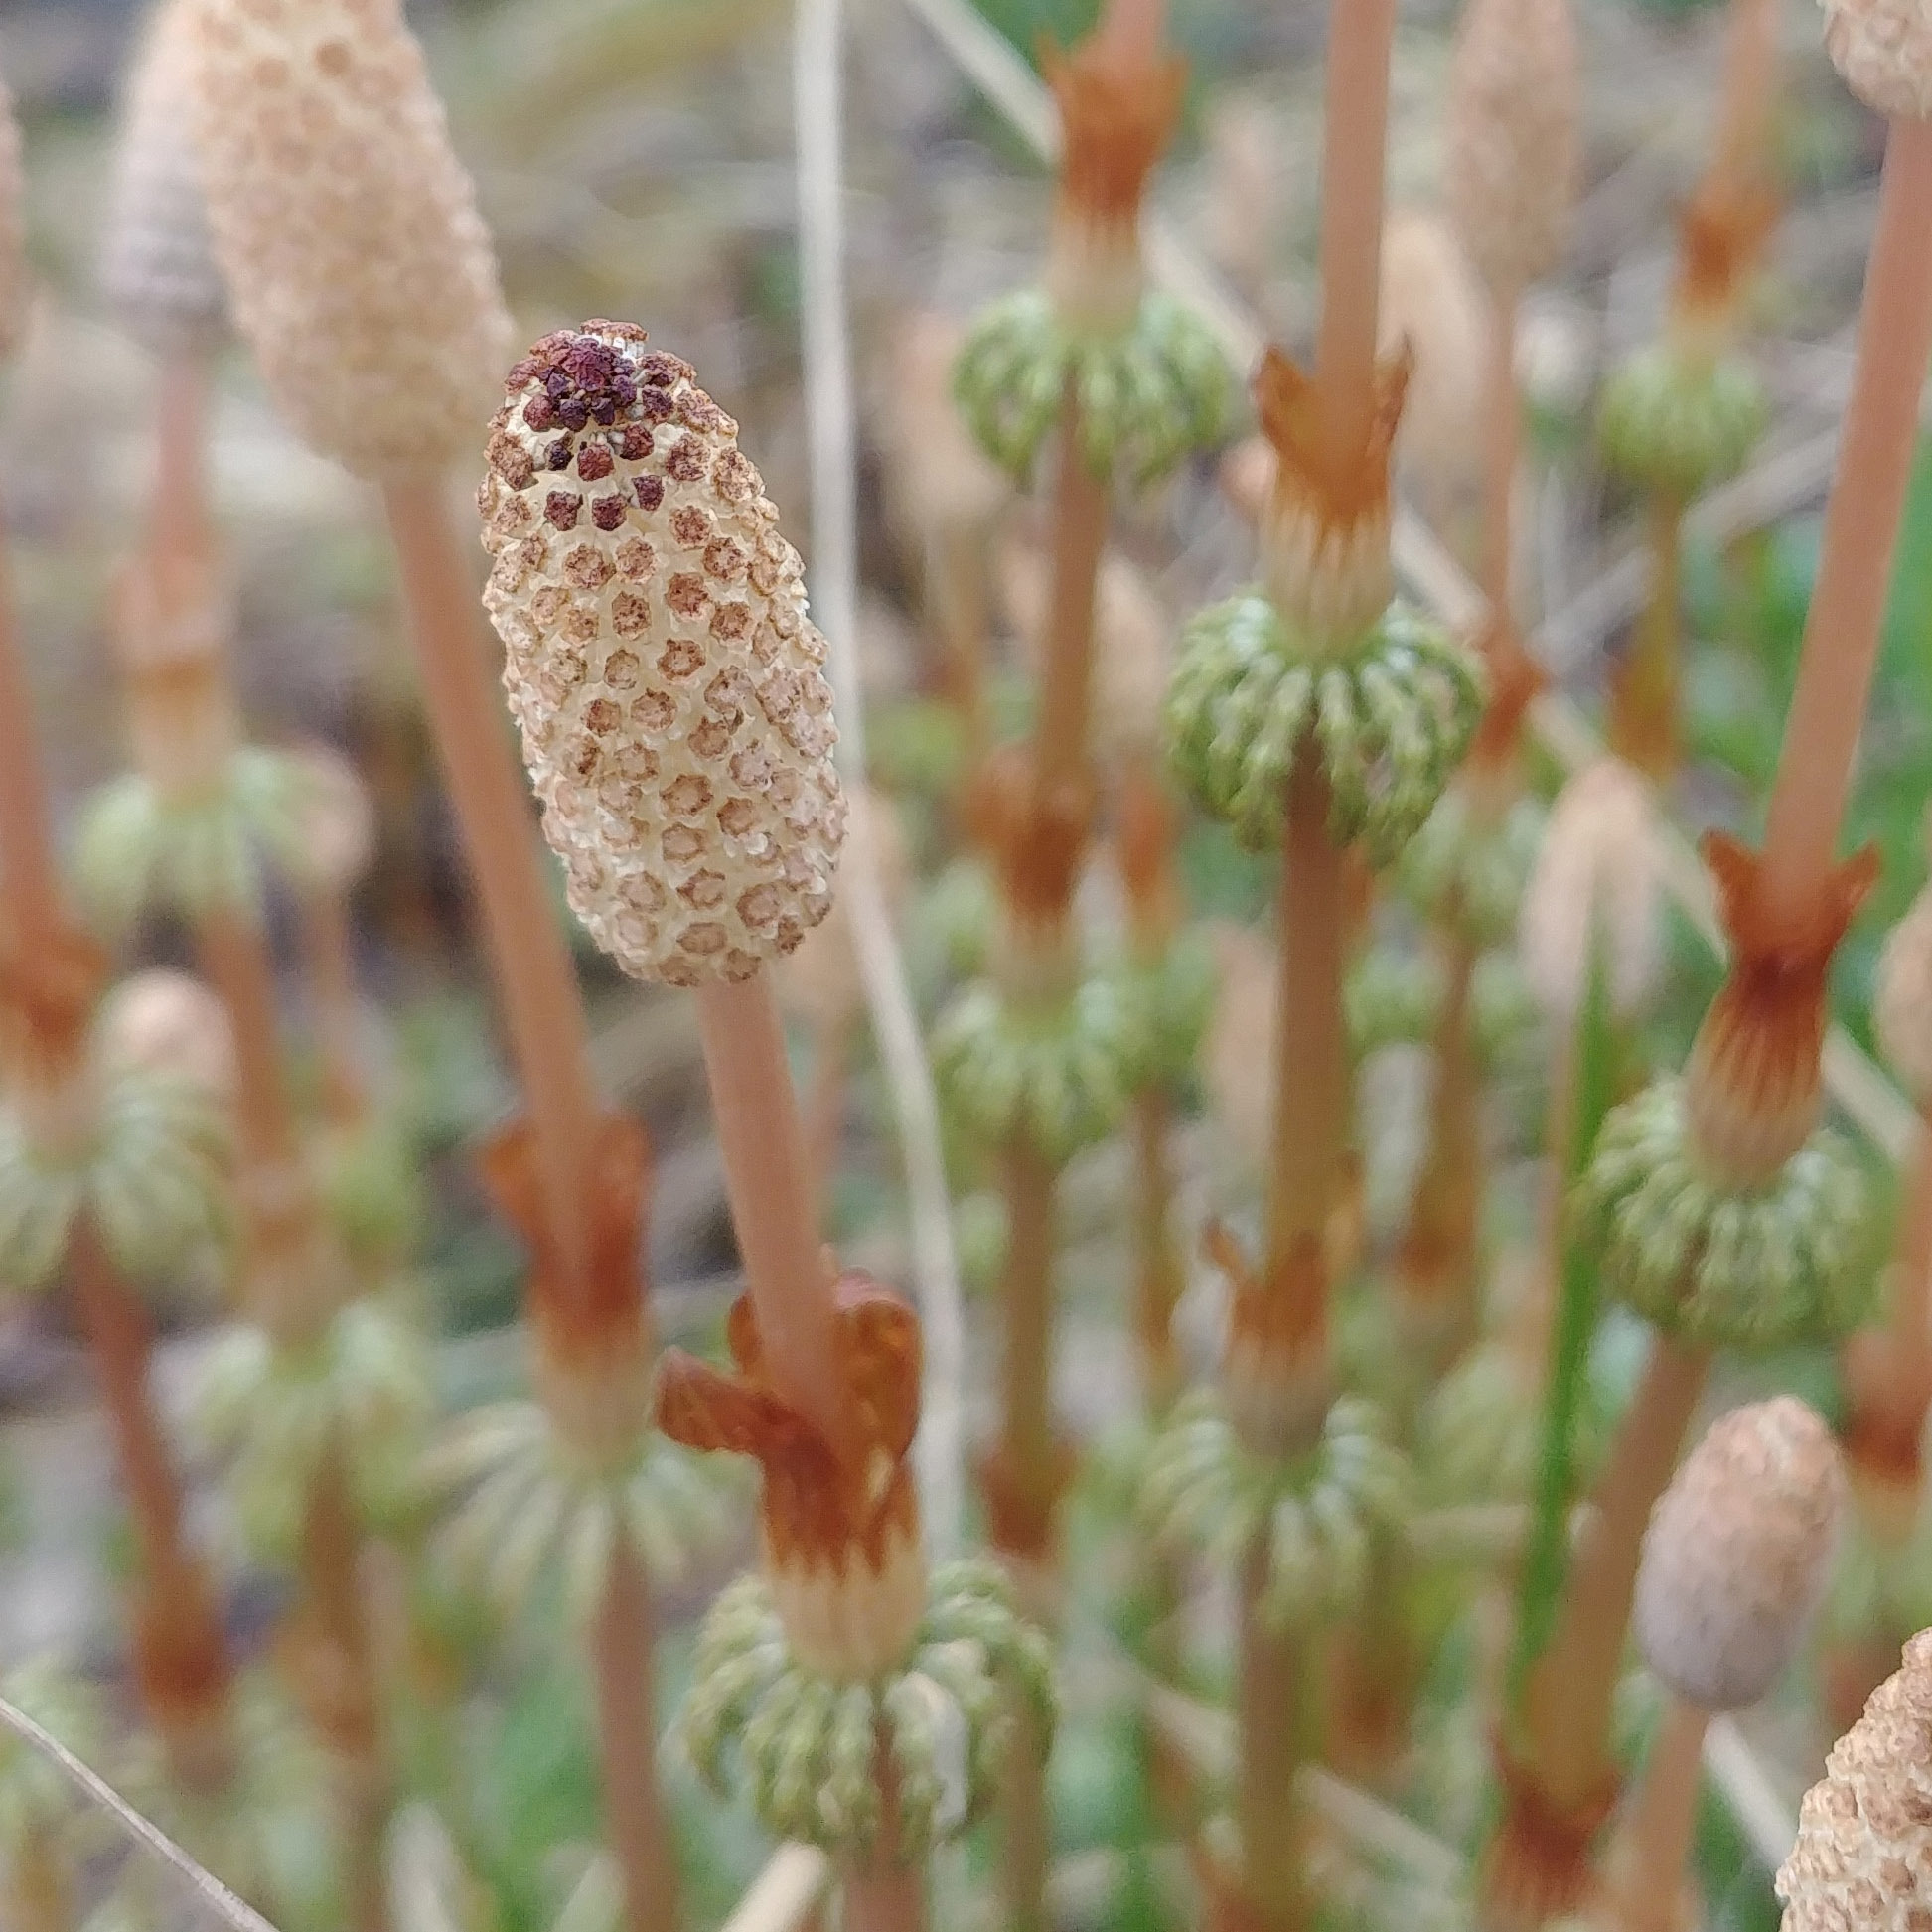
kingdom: Plantae
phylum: Tracheophyta
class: Polypodiopsida
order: Equisetales
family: Equisetaceae
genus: Equisetum
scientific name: Equisetum sylvaticum
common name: Wood horsetail
